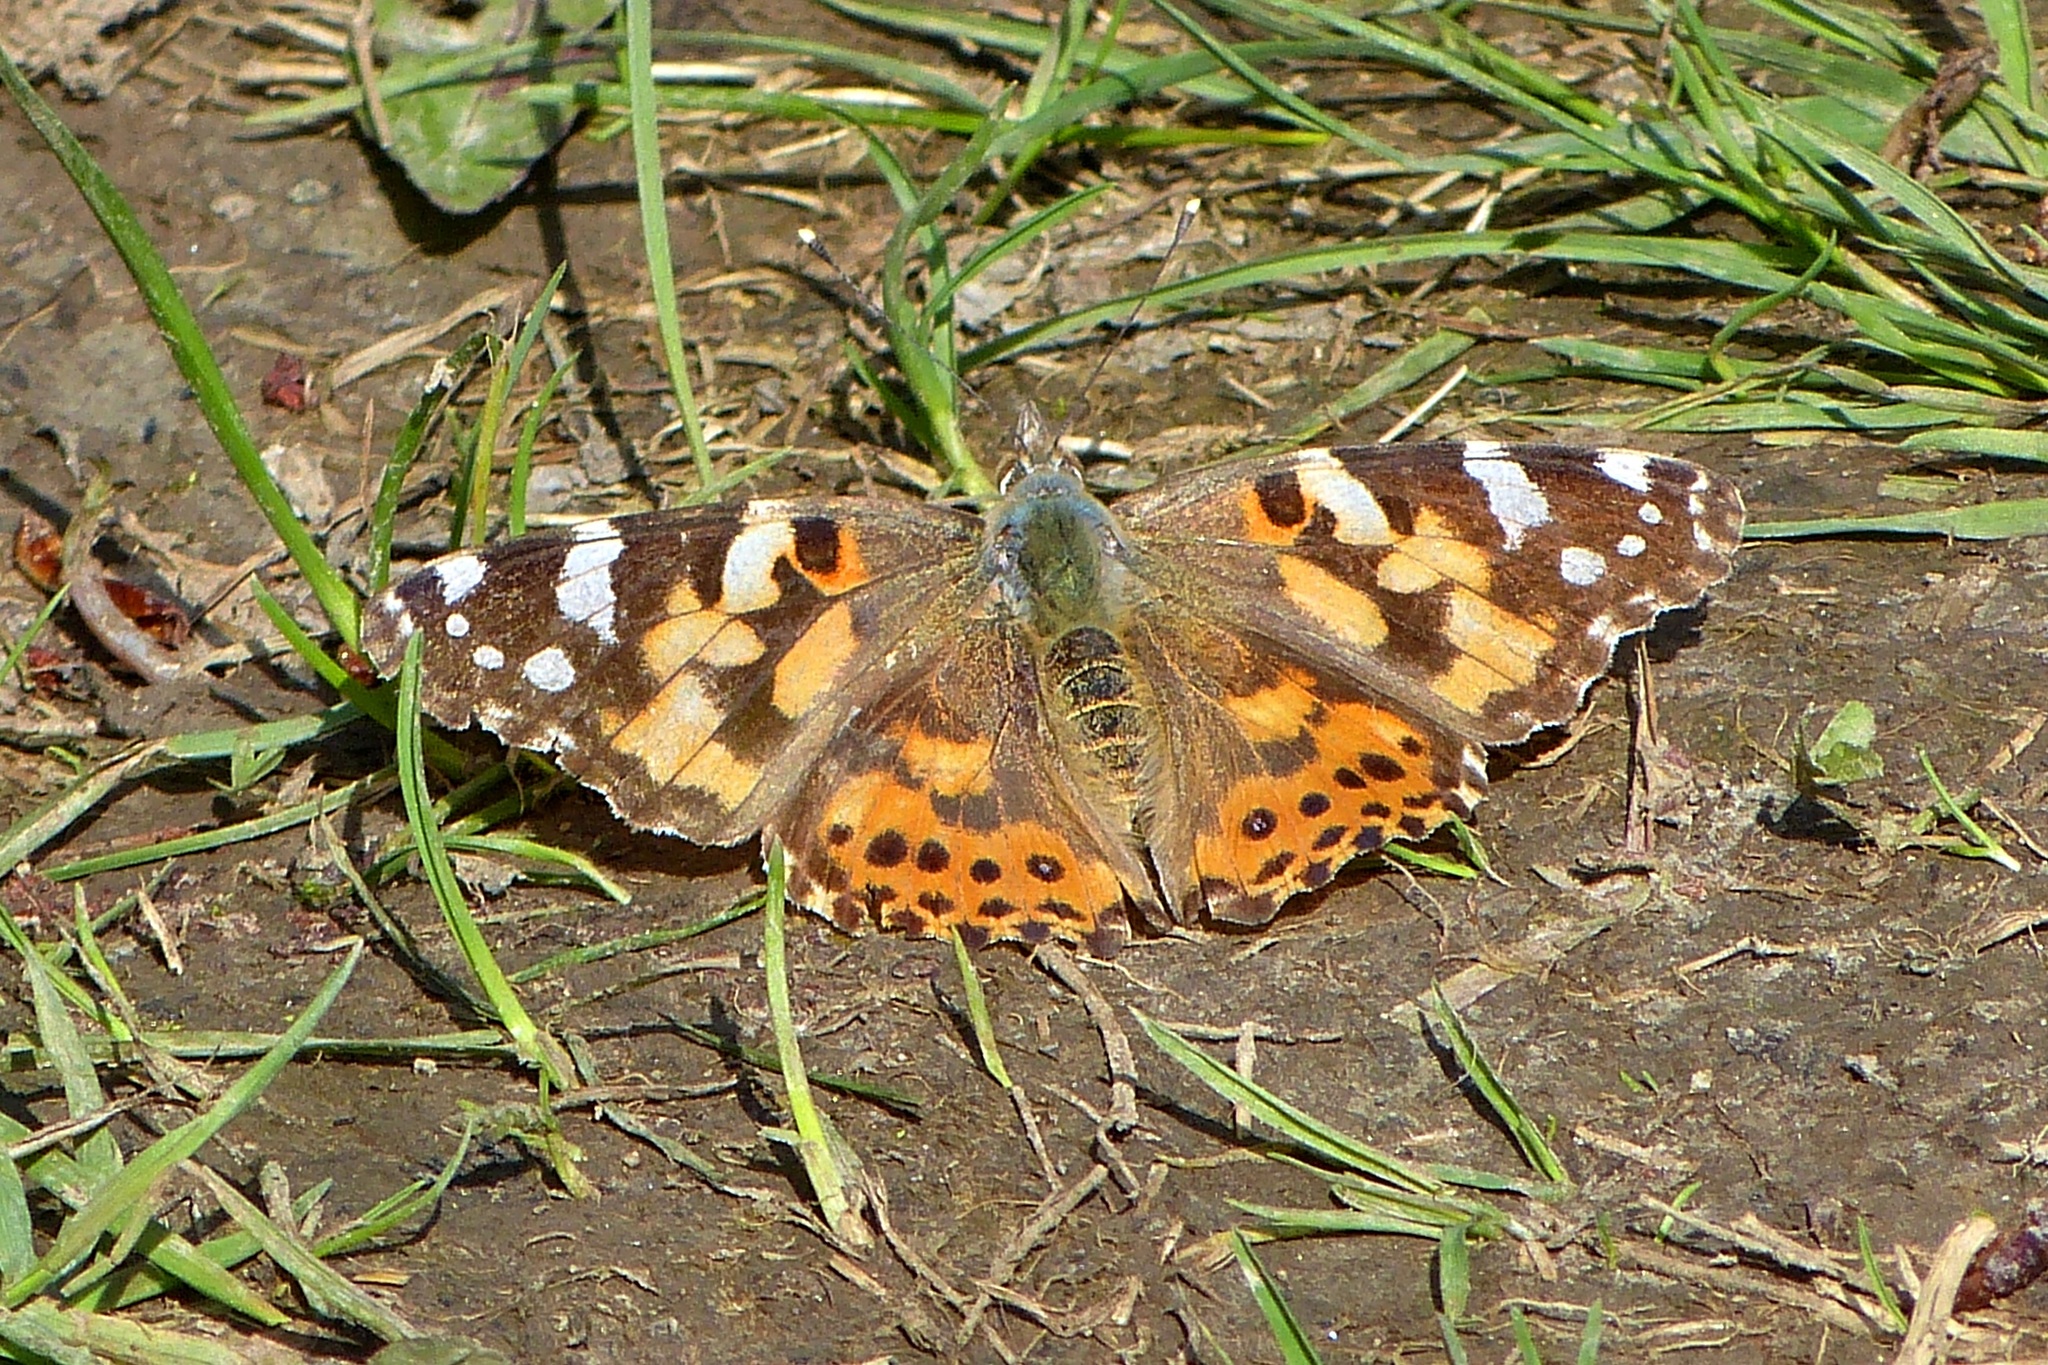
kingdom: Animalia
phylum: Arthropoda
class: Insecta
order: Lepidoptera
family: Nymphalidae
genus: Vanessa
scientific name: Vanessa cardui
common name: Painted lady
